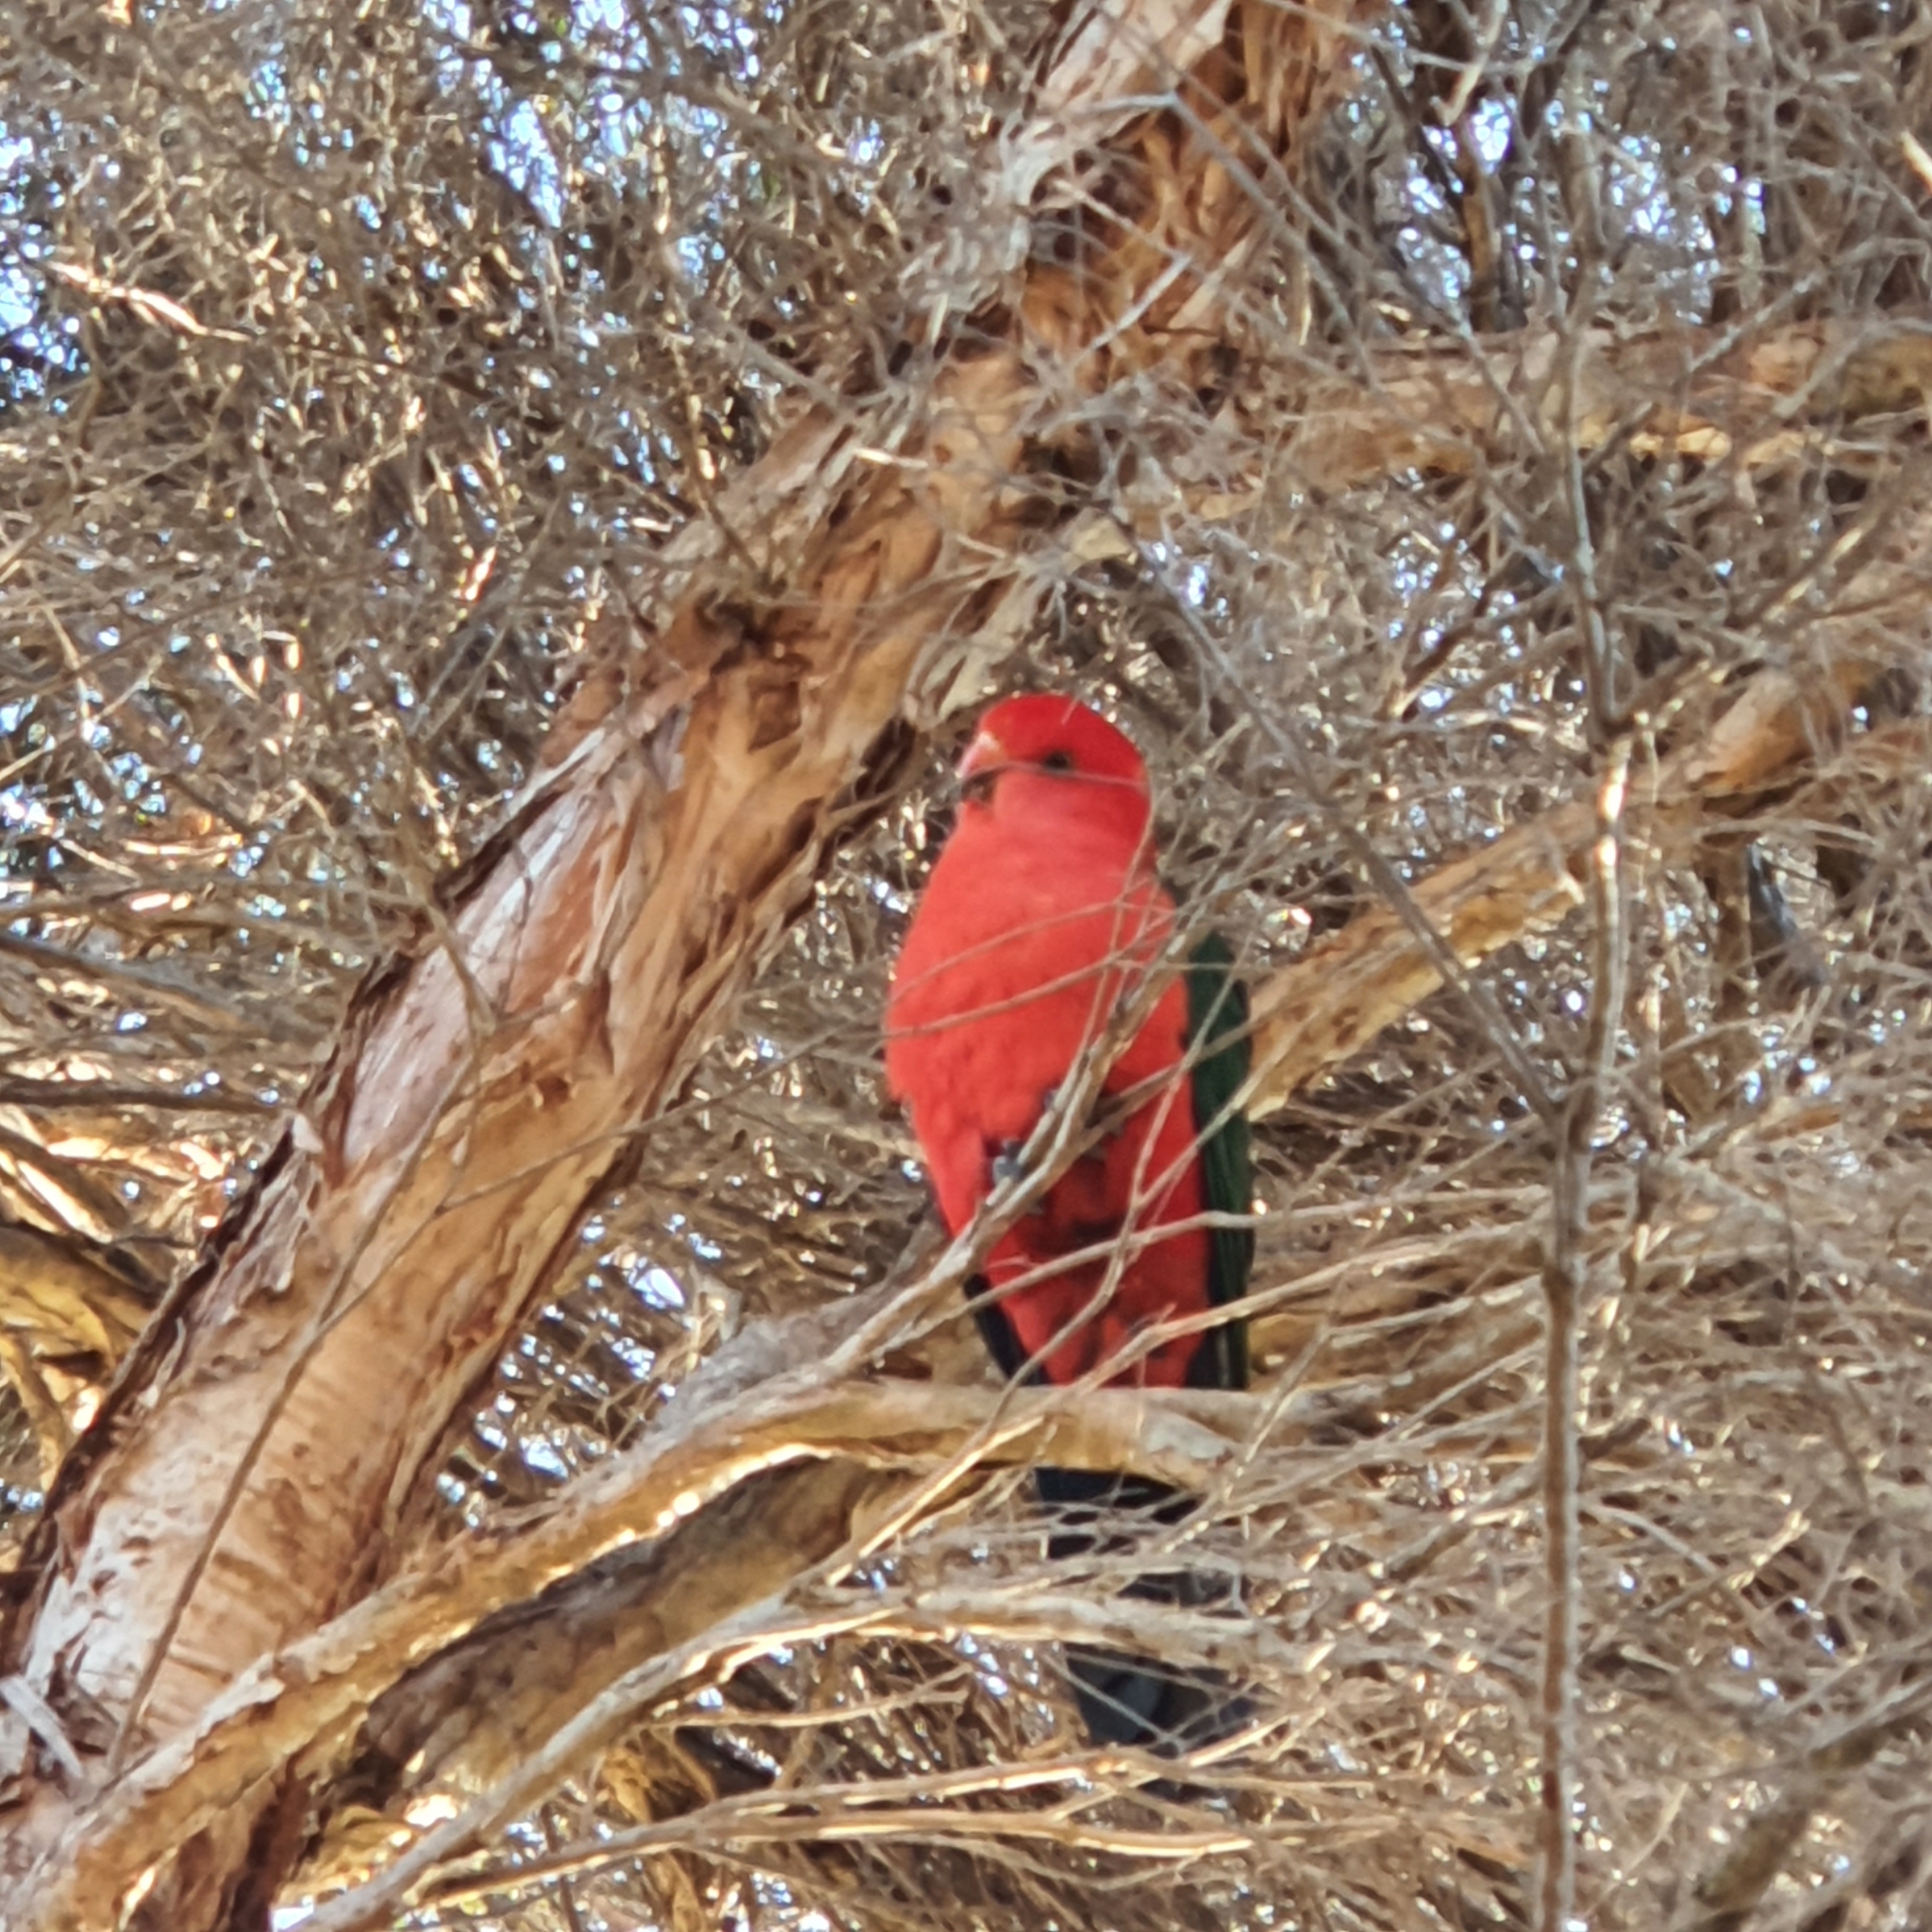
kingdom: Animalia
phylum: Chordata
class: Aves
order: Psittaciformes
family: Psittacidae
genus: Alisterus
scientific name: Alisterus scapularis
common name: Australian king parrot
